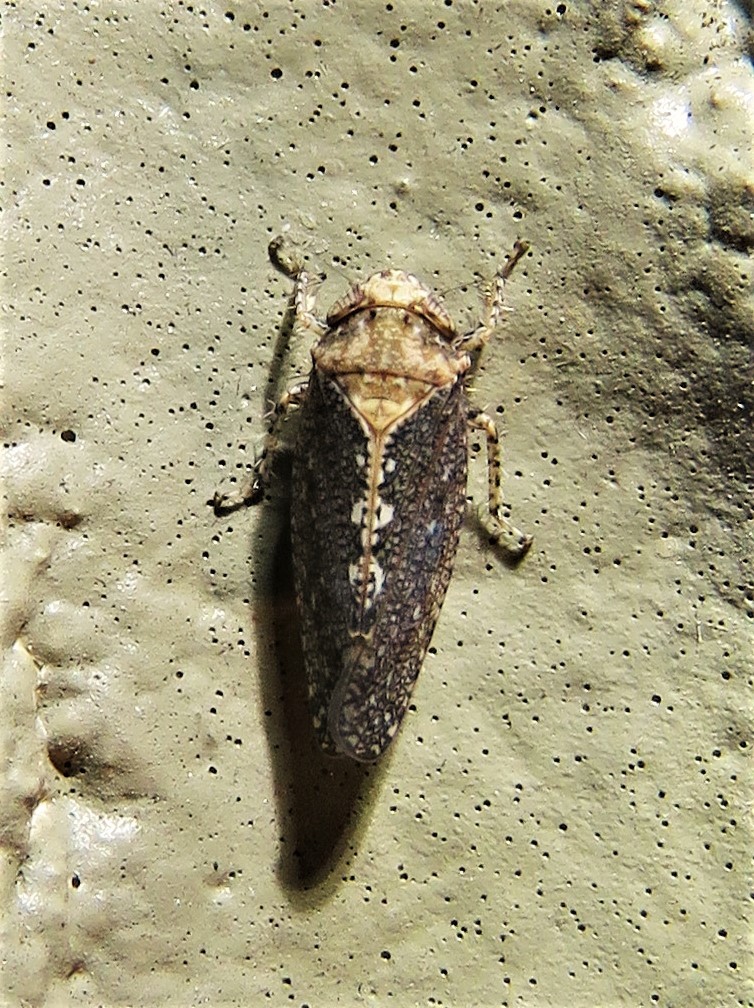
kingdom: Animalia
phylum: Arthropoda
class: Insecta
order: Hemiptera
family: Cicadellidae
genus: Excultanus
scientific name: Excultanus excultus
